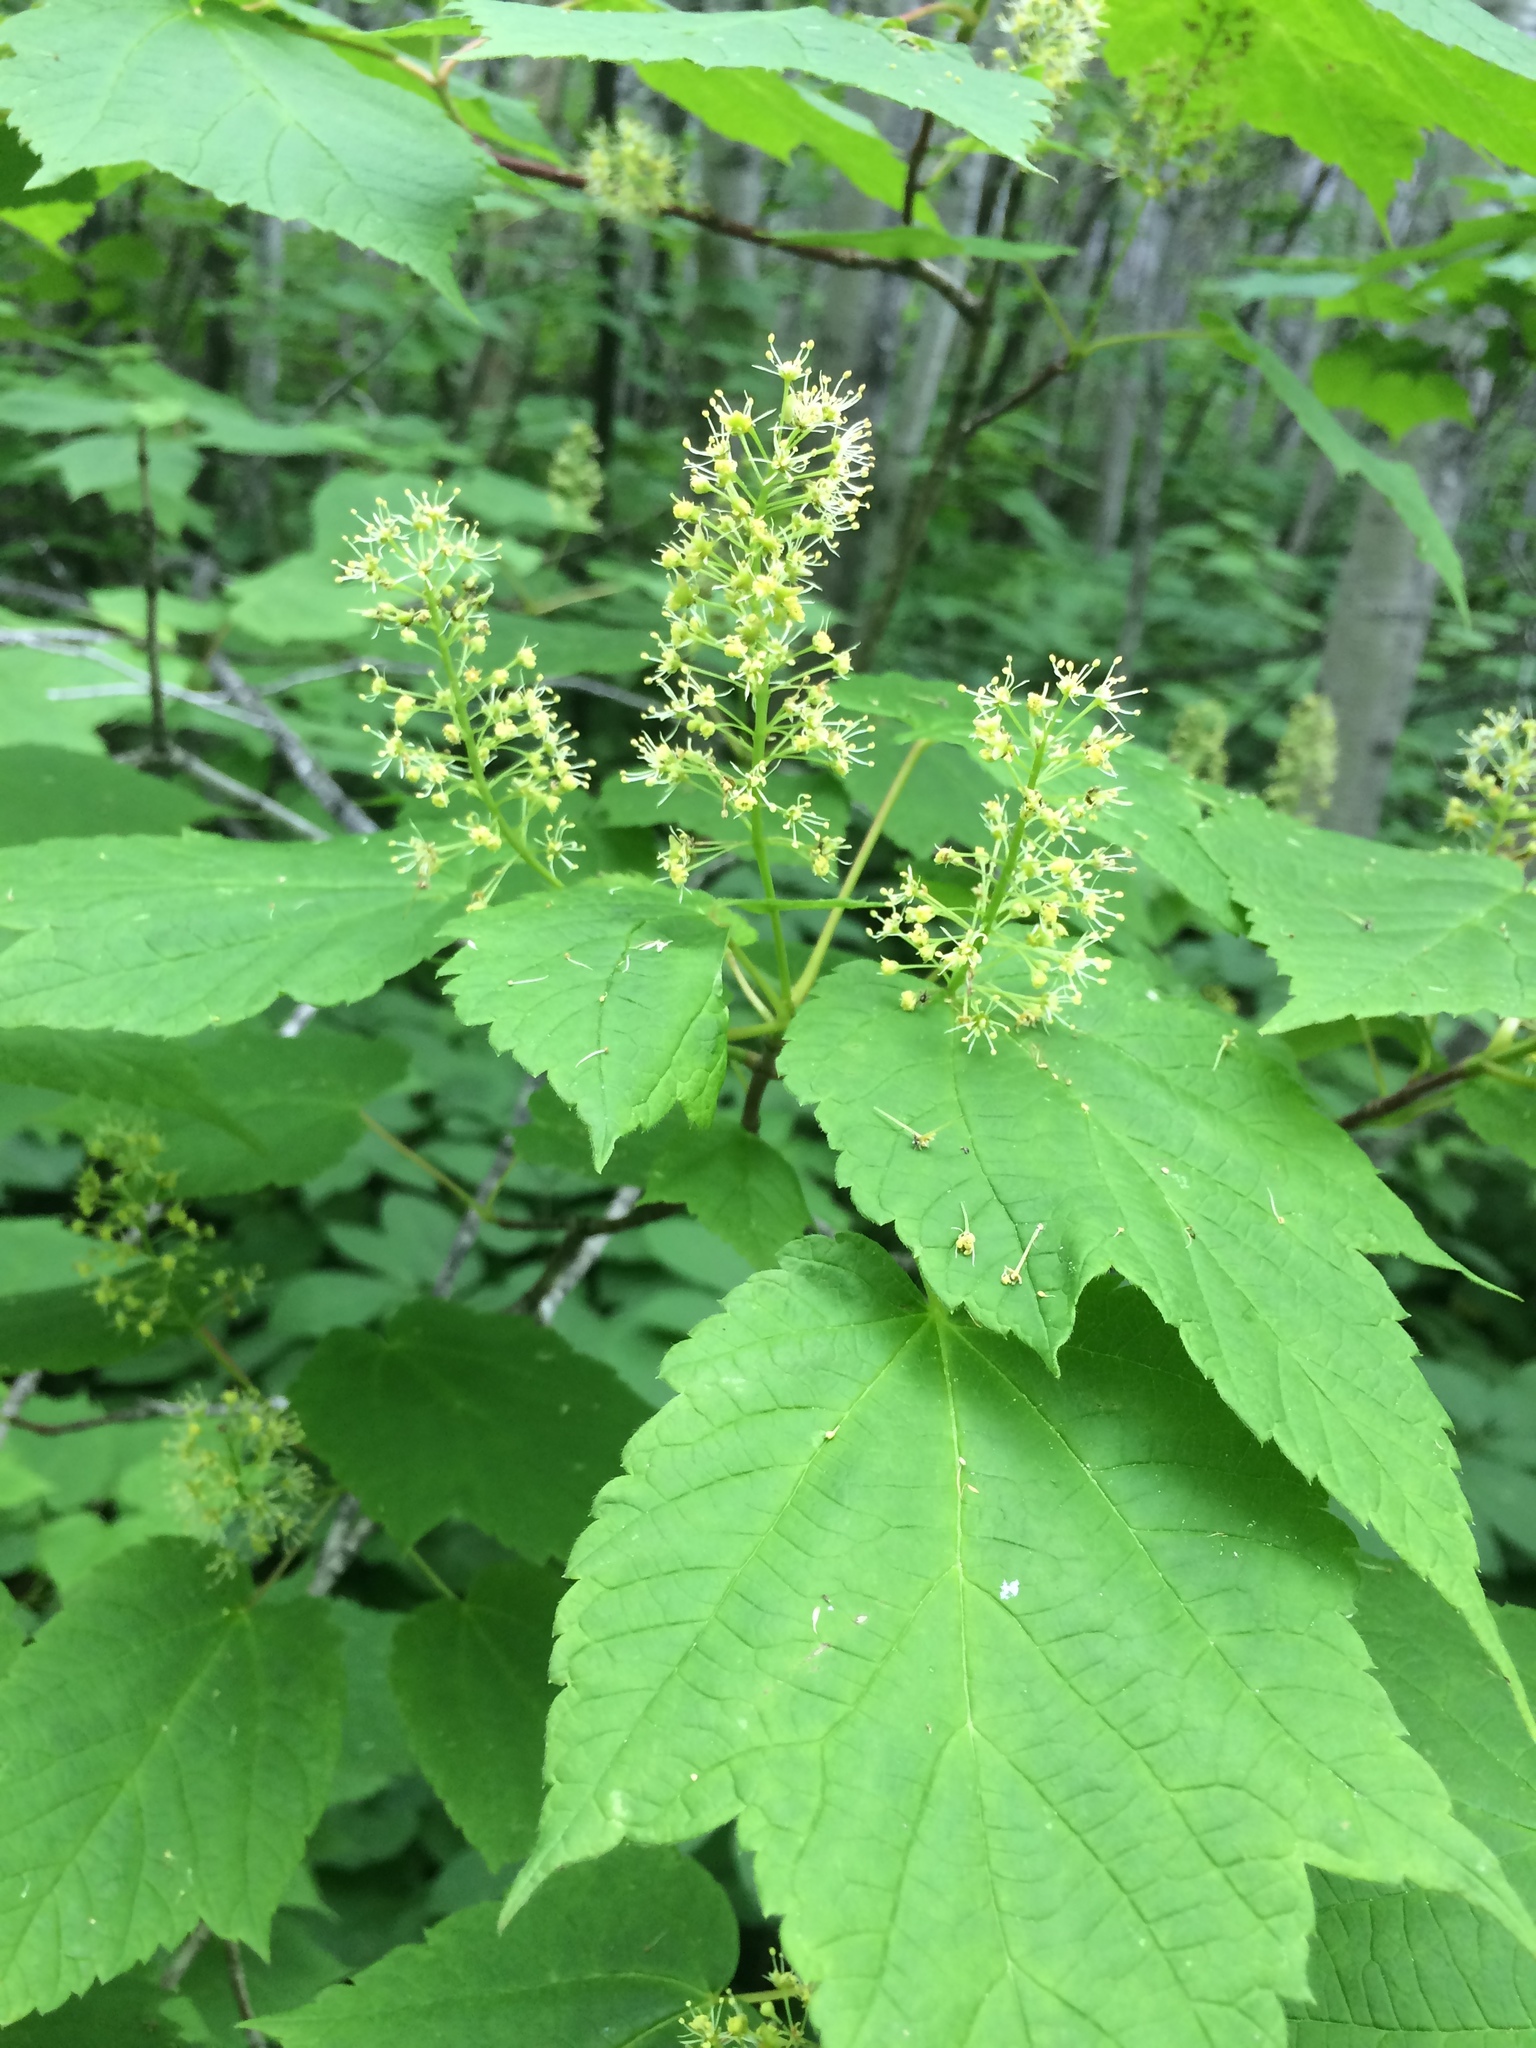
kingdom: Plantae
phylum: Tracheophyta
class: Magnoliopsida
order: Sapindales
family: Sapindaceae
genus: Acer
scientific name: Acer spicatum
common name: Mountain maple
